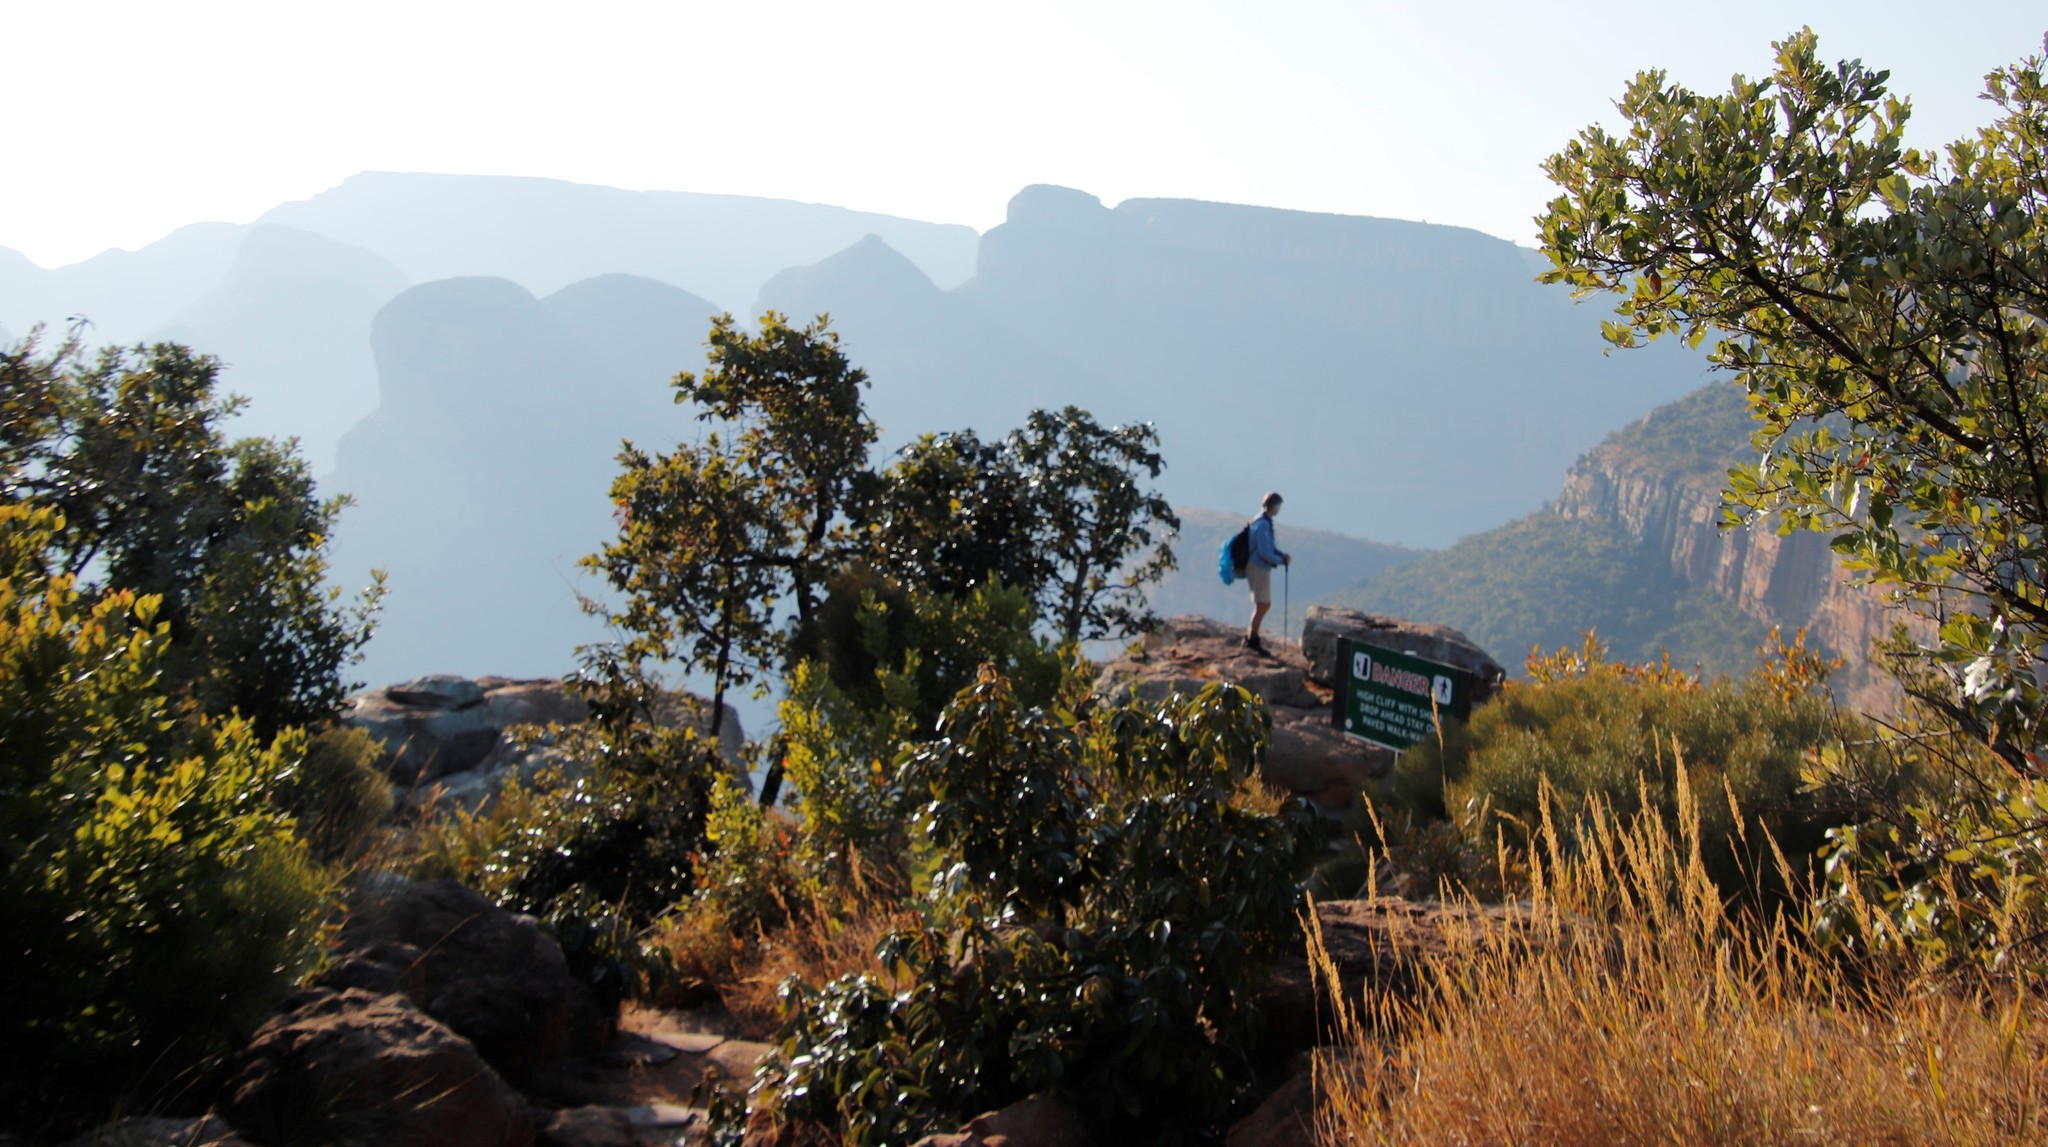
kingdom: Plantae
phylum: Tracheophyta
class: Magnoliopsida
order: Ericales
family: Sapotaceae
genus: Englerophytum
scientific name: Englerophytum magalismontanum
